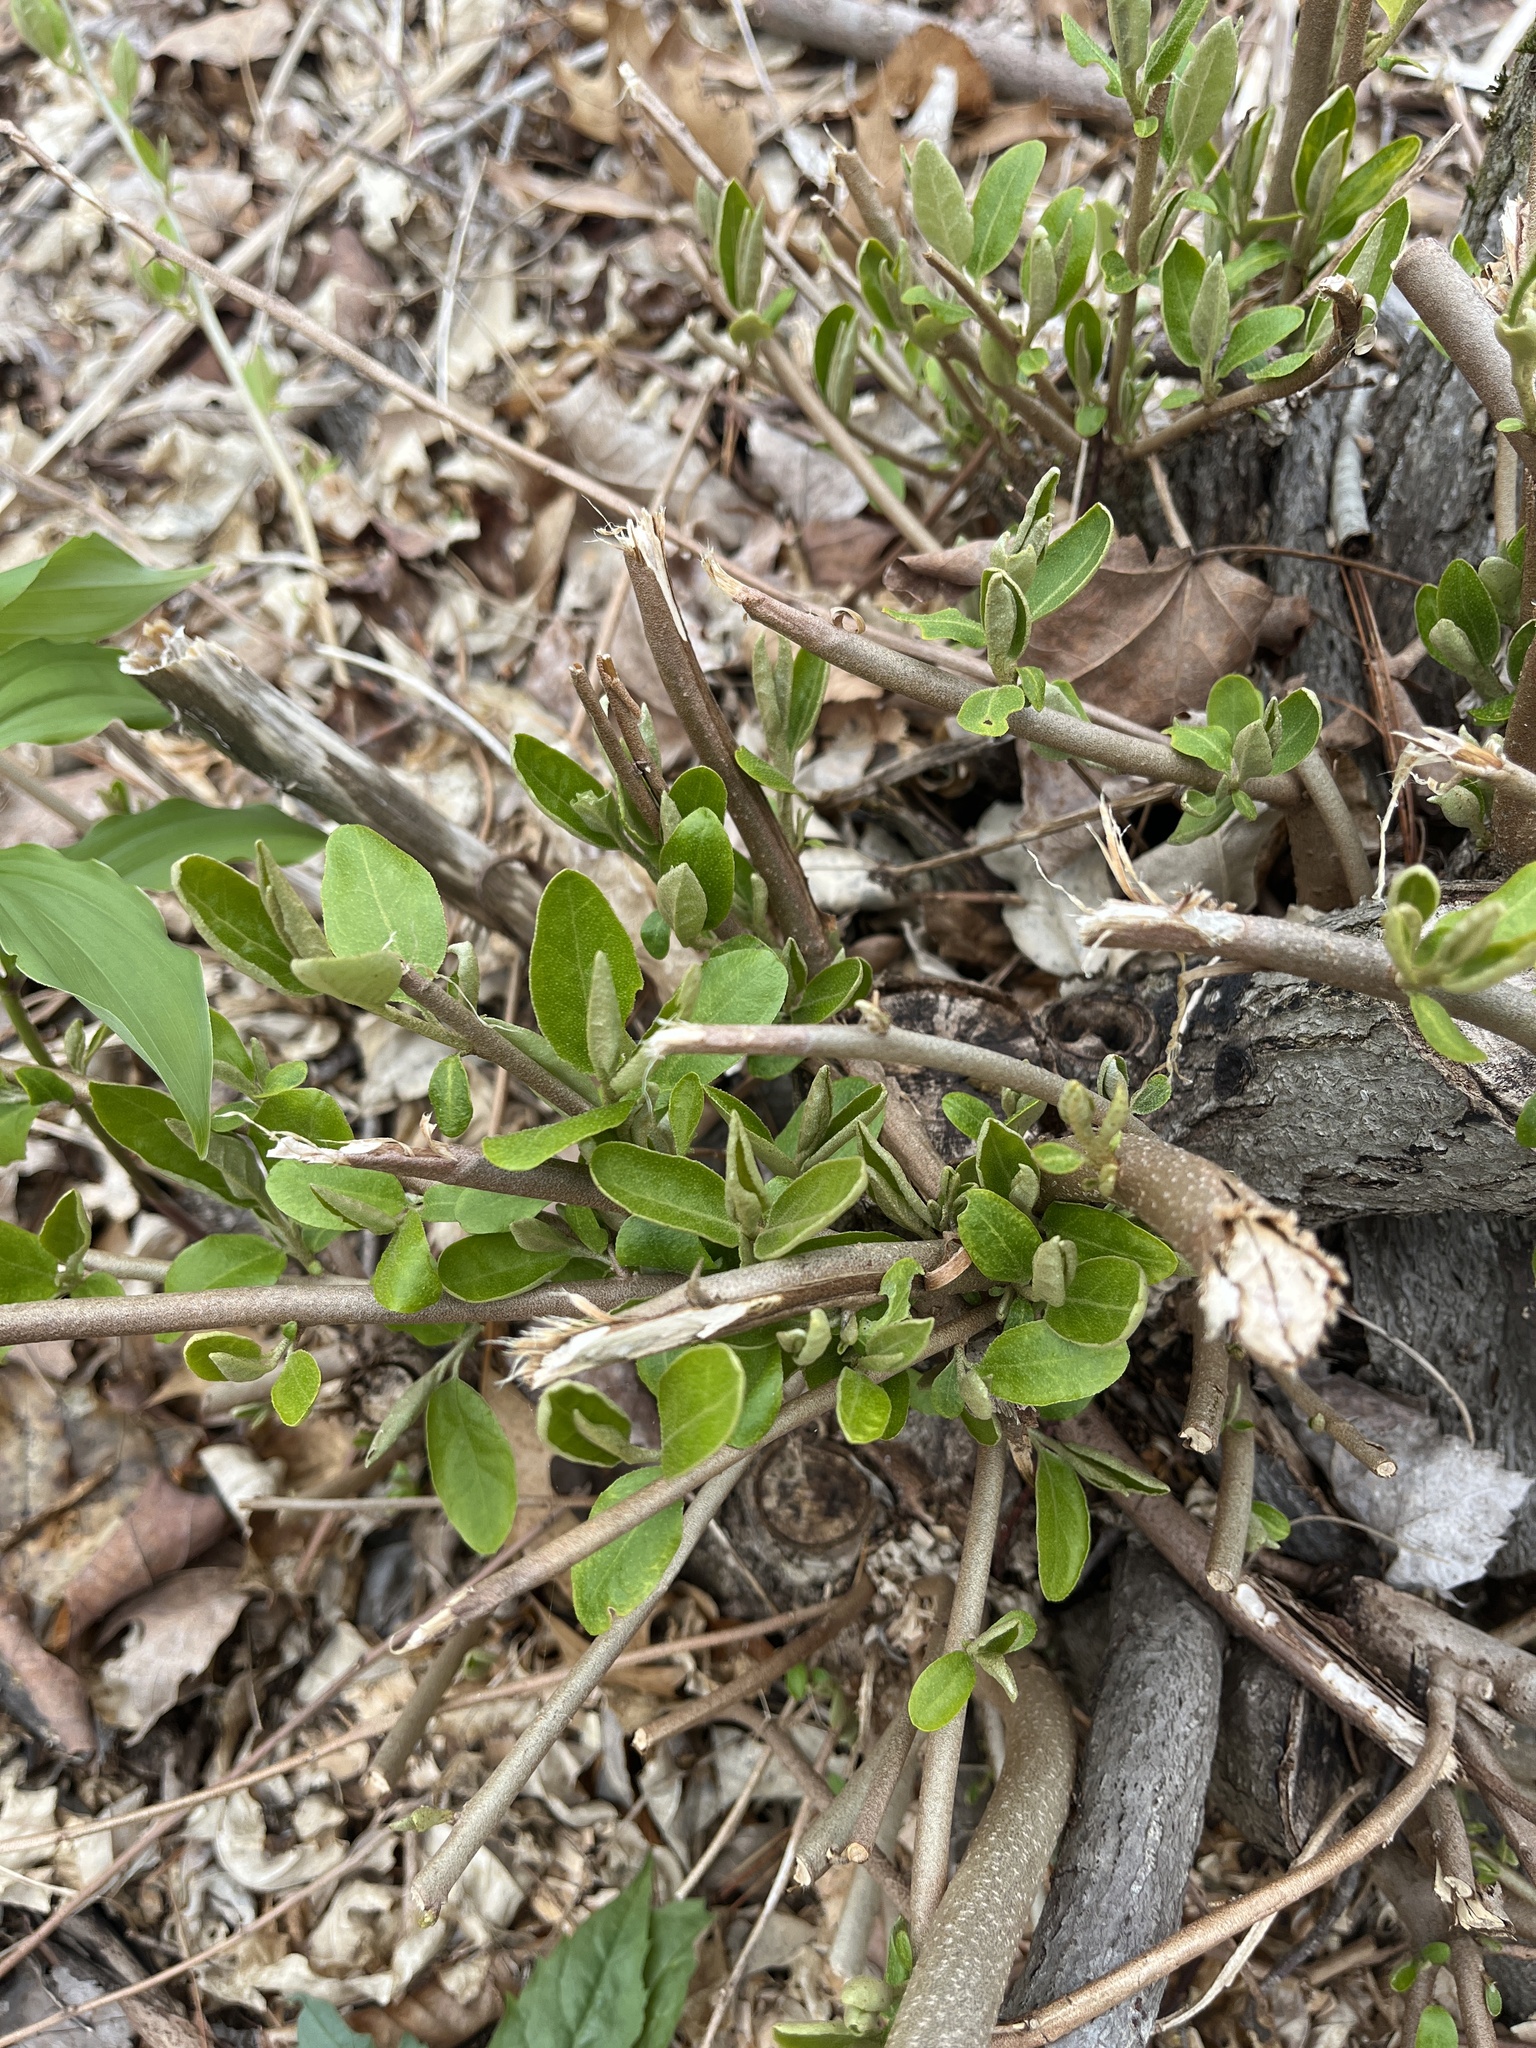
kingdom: Plantae
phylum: Tracheophyta
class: Magnoliopsida
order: Rosales
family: Elaeagnaceae
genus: Elaeagnus
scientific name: Elaeagnus umbellata
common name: Autumn olive
